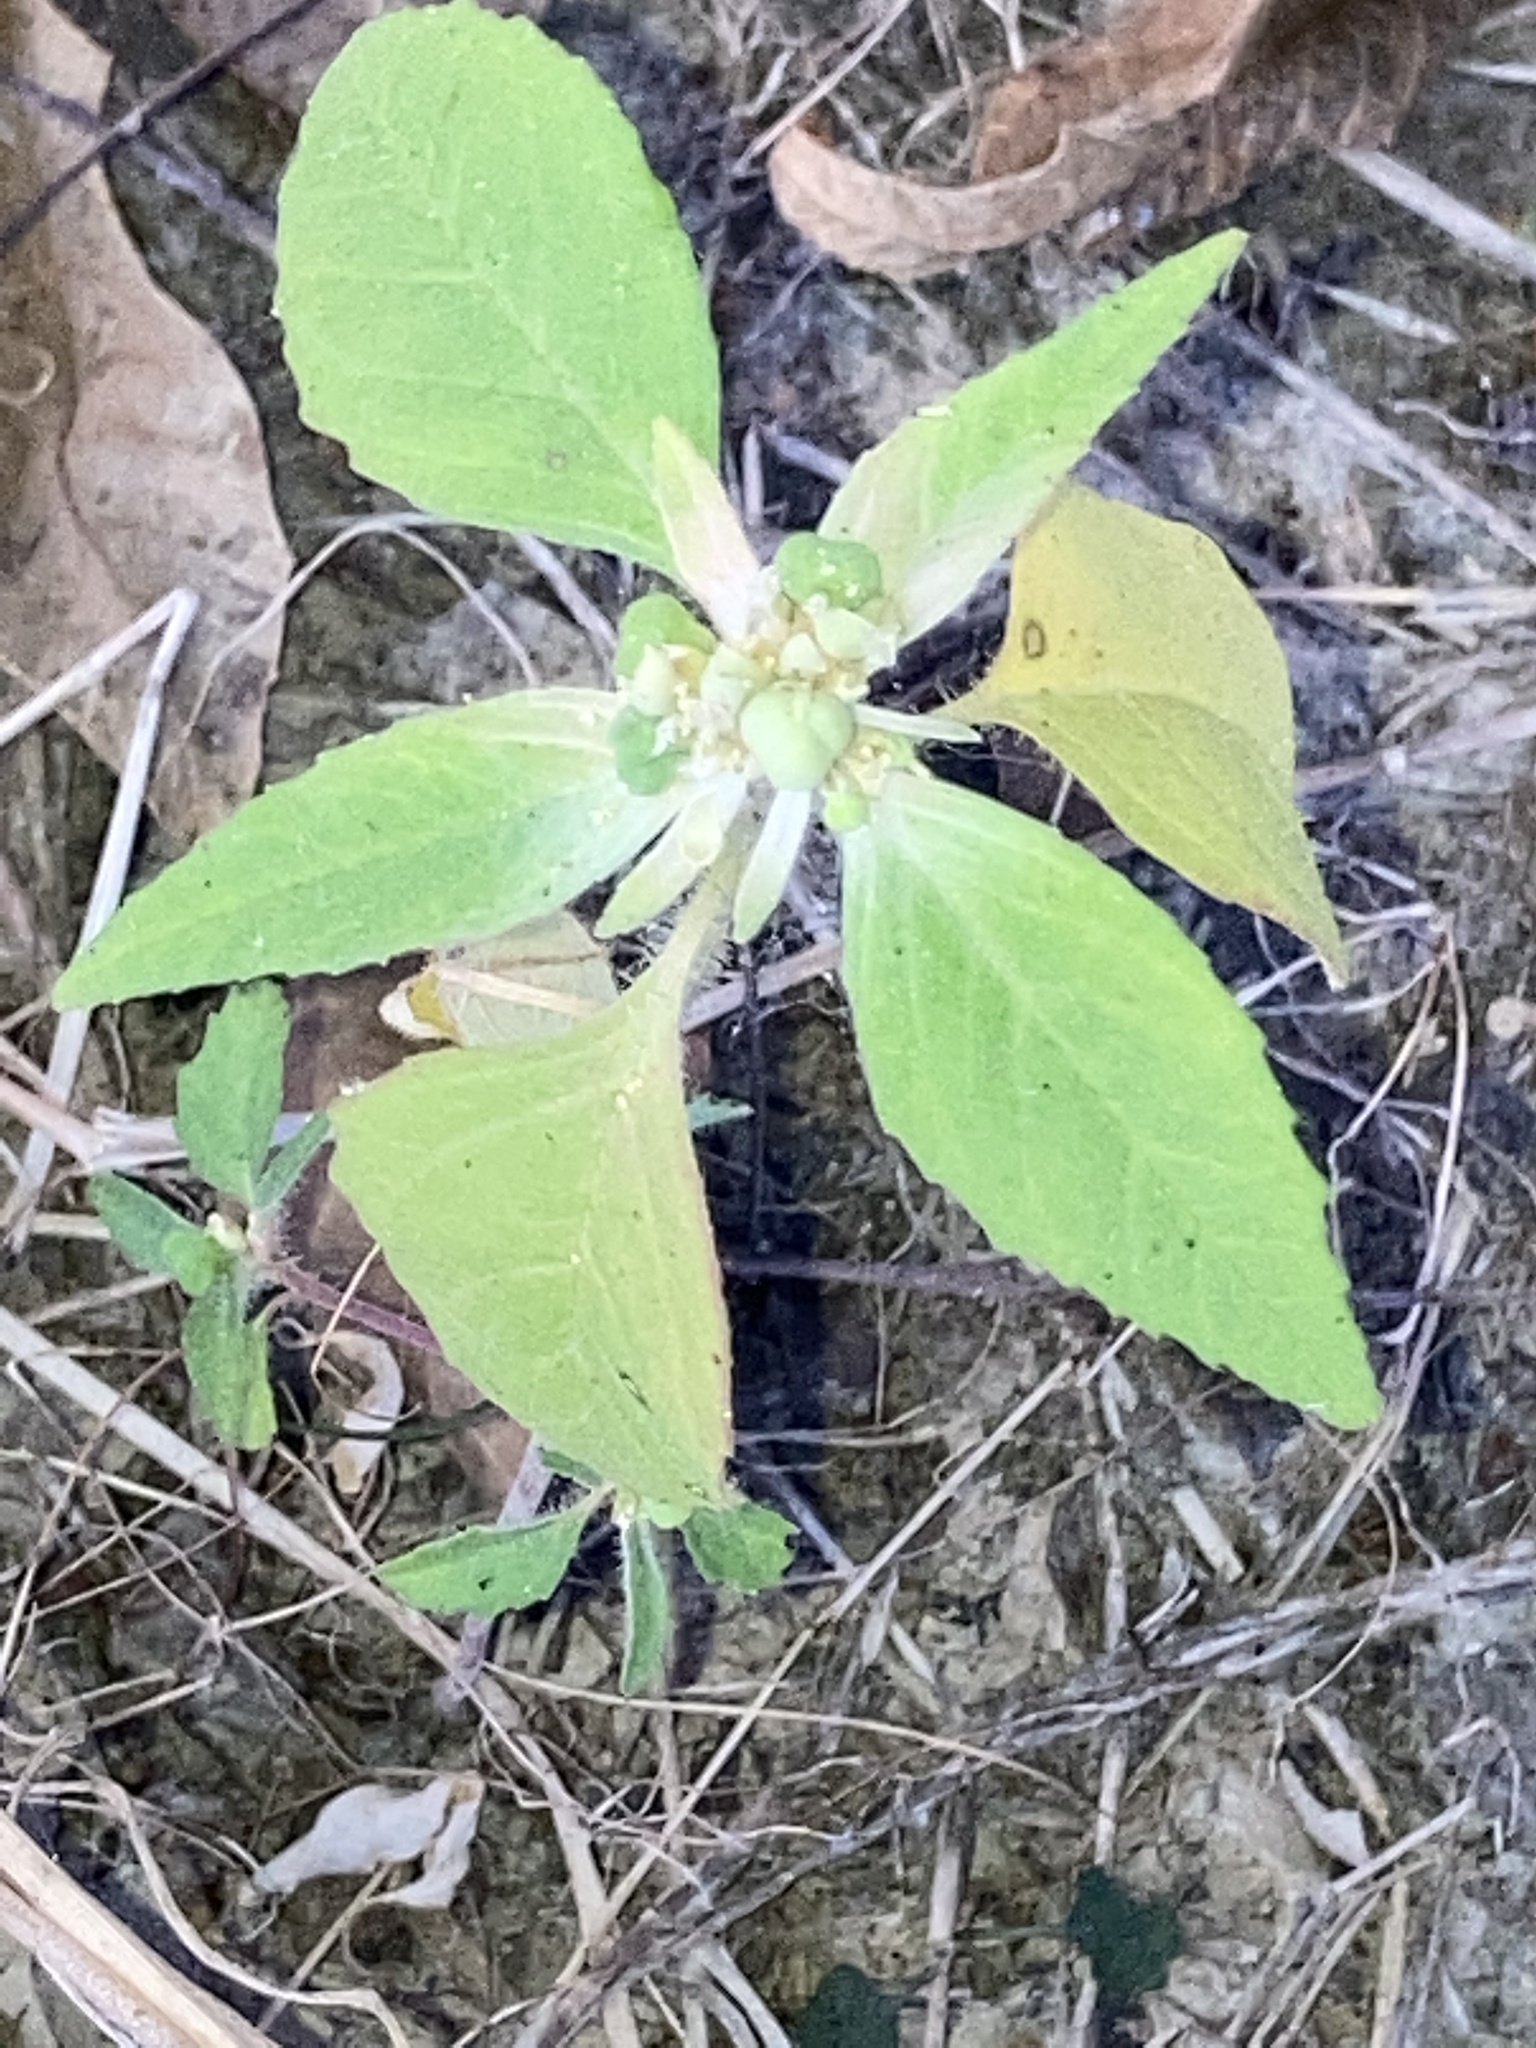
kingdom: Plantae
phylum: Tracheophyta
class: Magnoliopsida
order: Malpighiales
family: Euphorbiaceae
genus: Euphorbia
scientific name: Euphorbia dentata
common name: Dentate spurge
